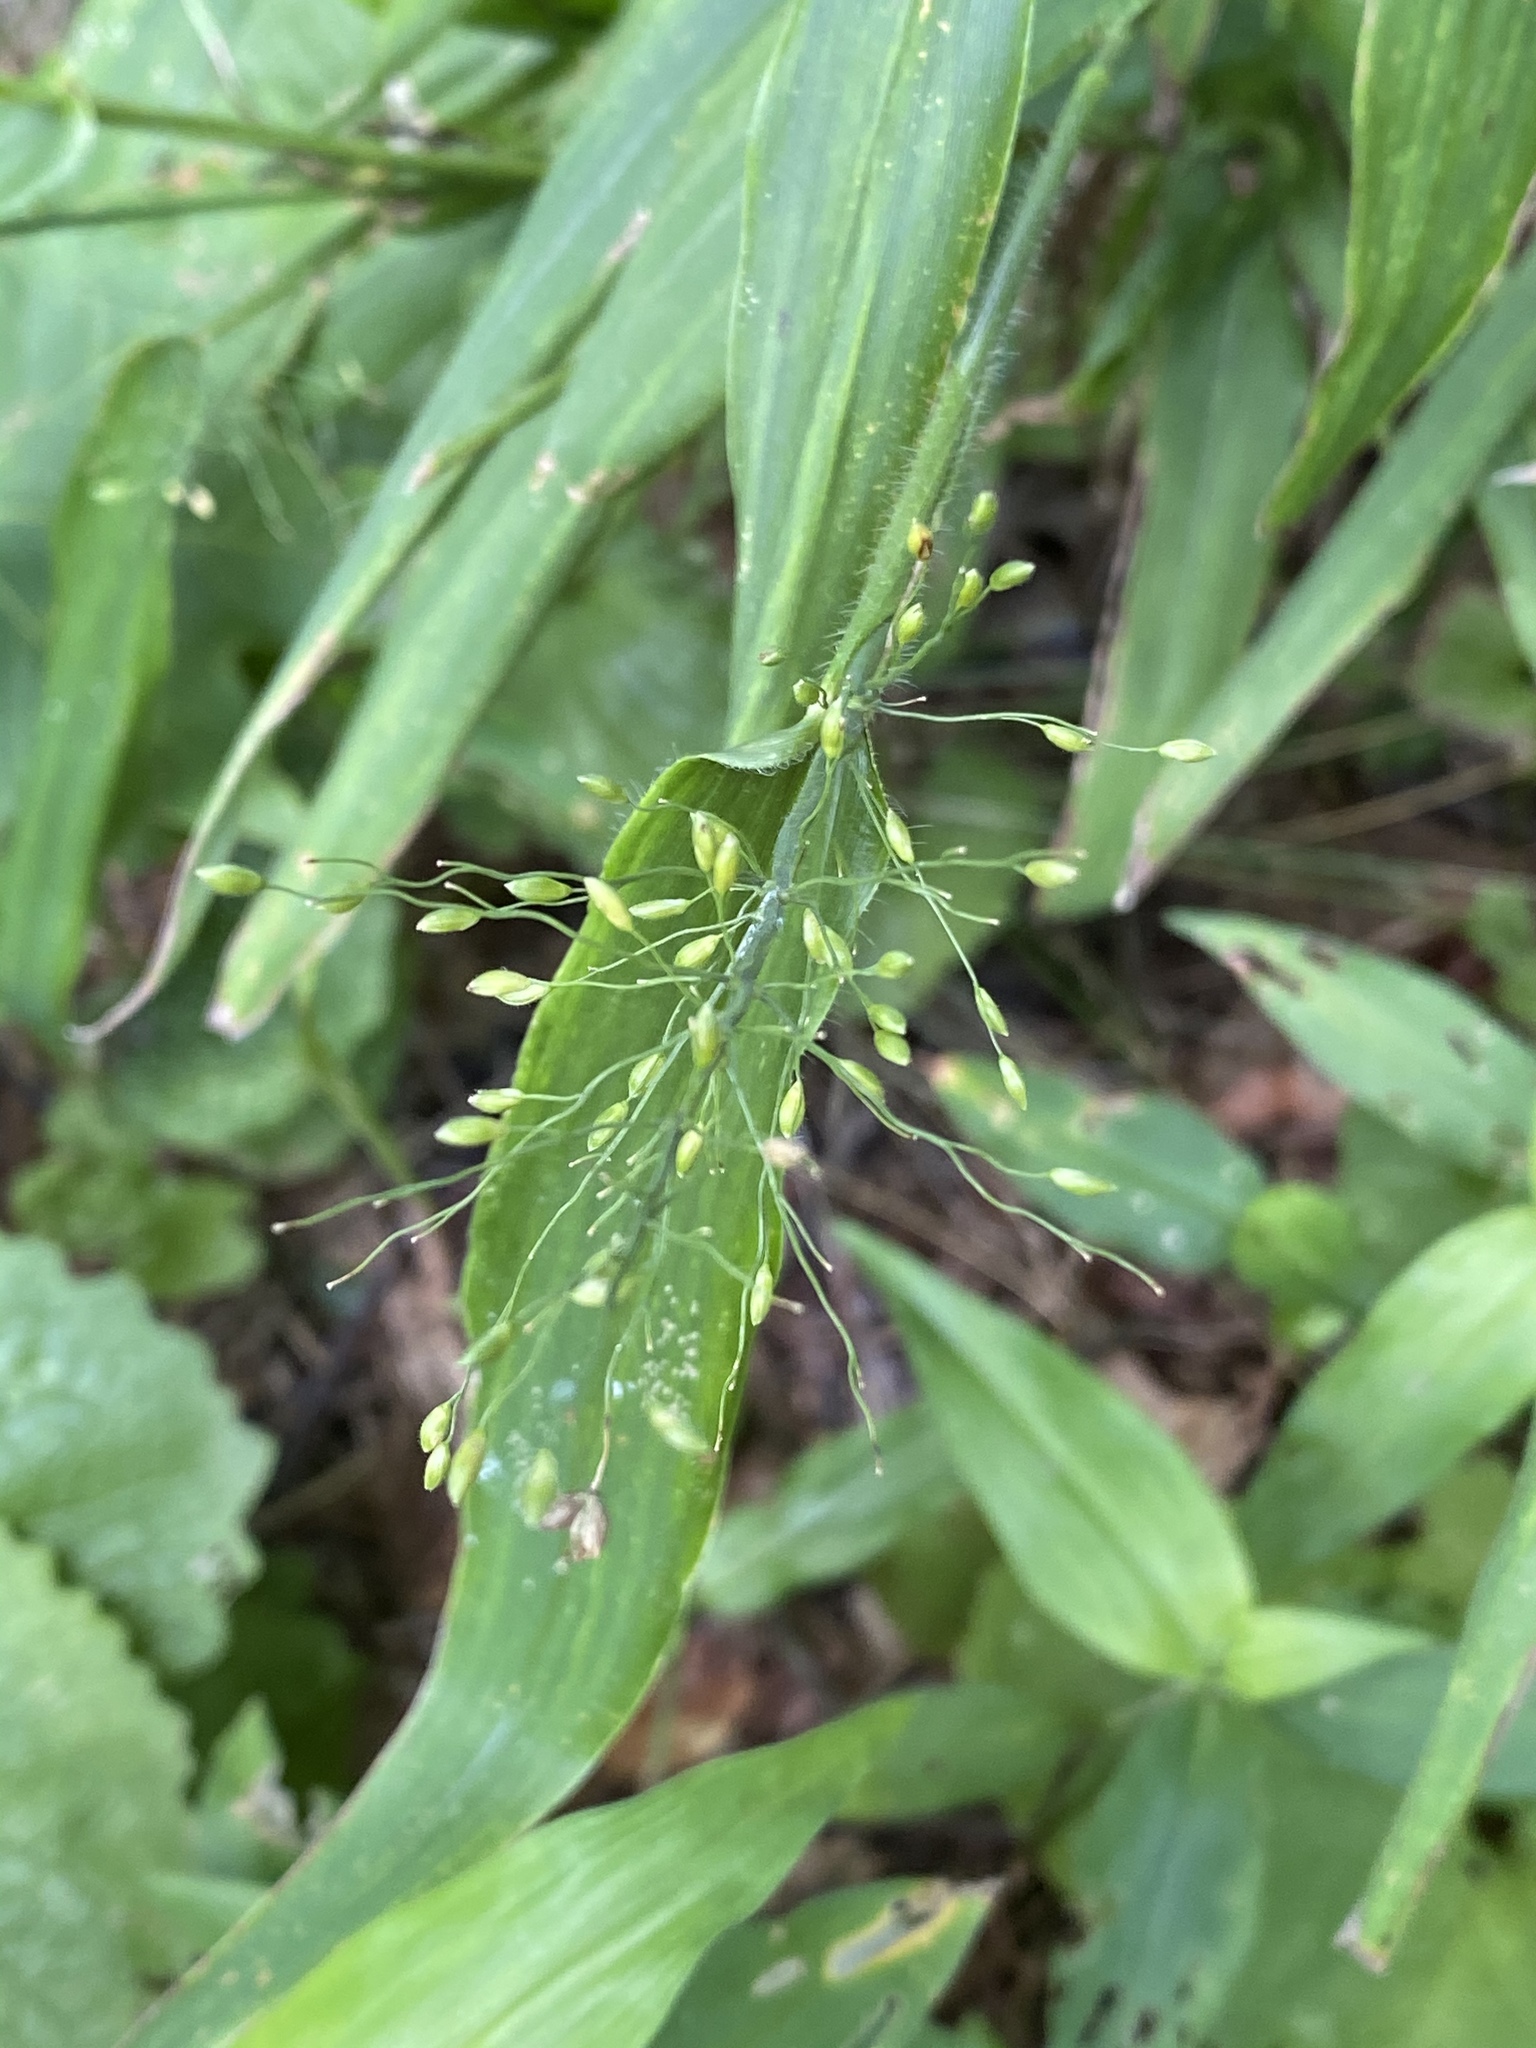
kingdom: Plantae
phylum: Tracheophyta
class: Liliopsida
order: Poales
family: Poaceae
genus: Dichanthelium
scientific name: Dichanthelium clandestinum
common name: Deer-tongue grass
